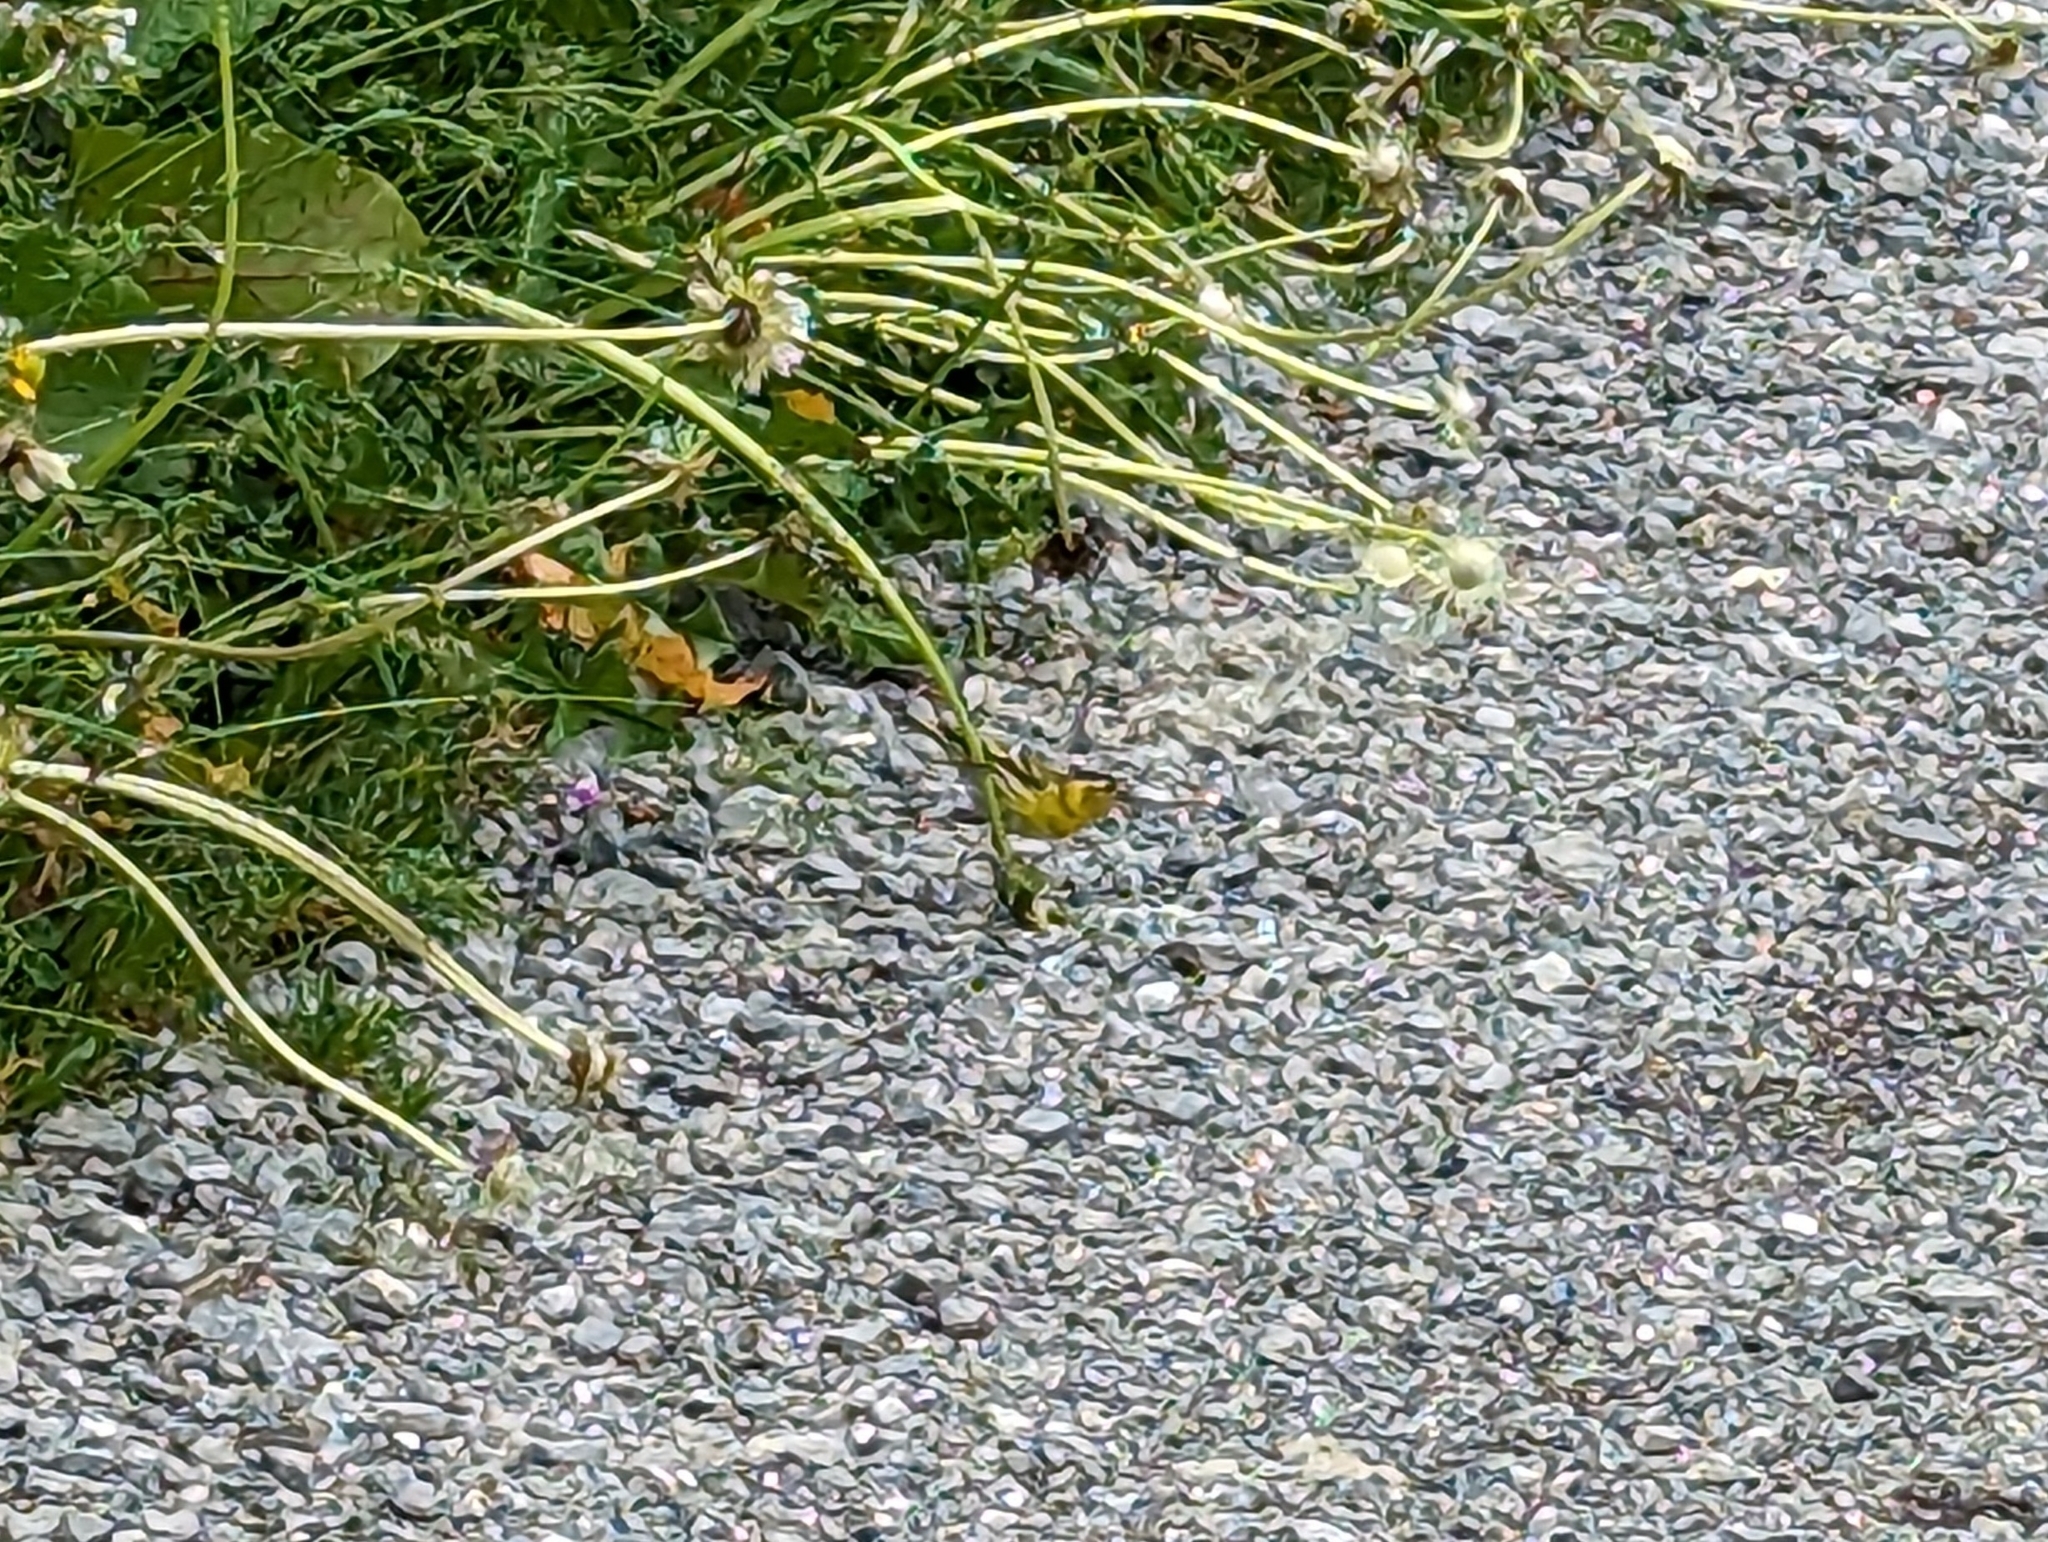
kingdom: Animalia
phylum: Chordata
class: Aves
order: Passeriformes
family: Fringillidae
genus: Spinus
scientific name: Spinus spinus
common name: Eurasian siskin
